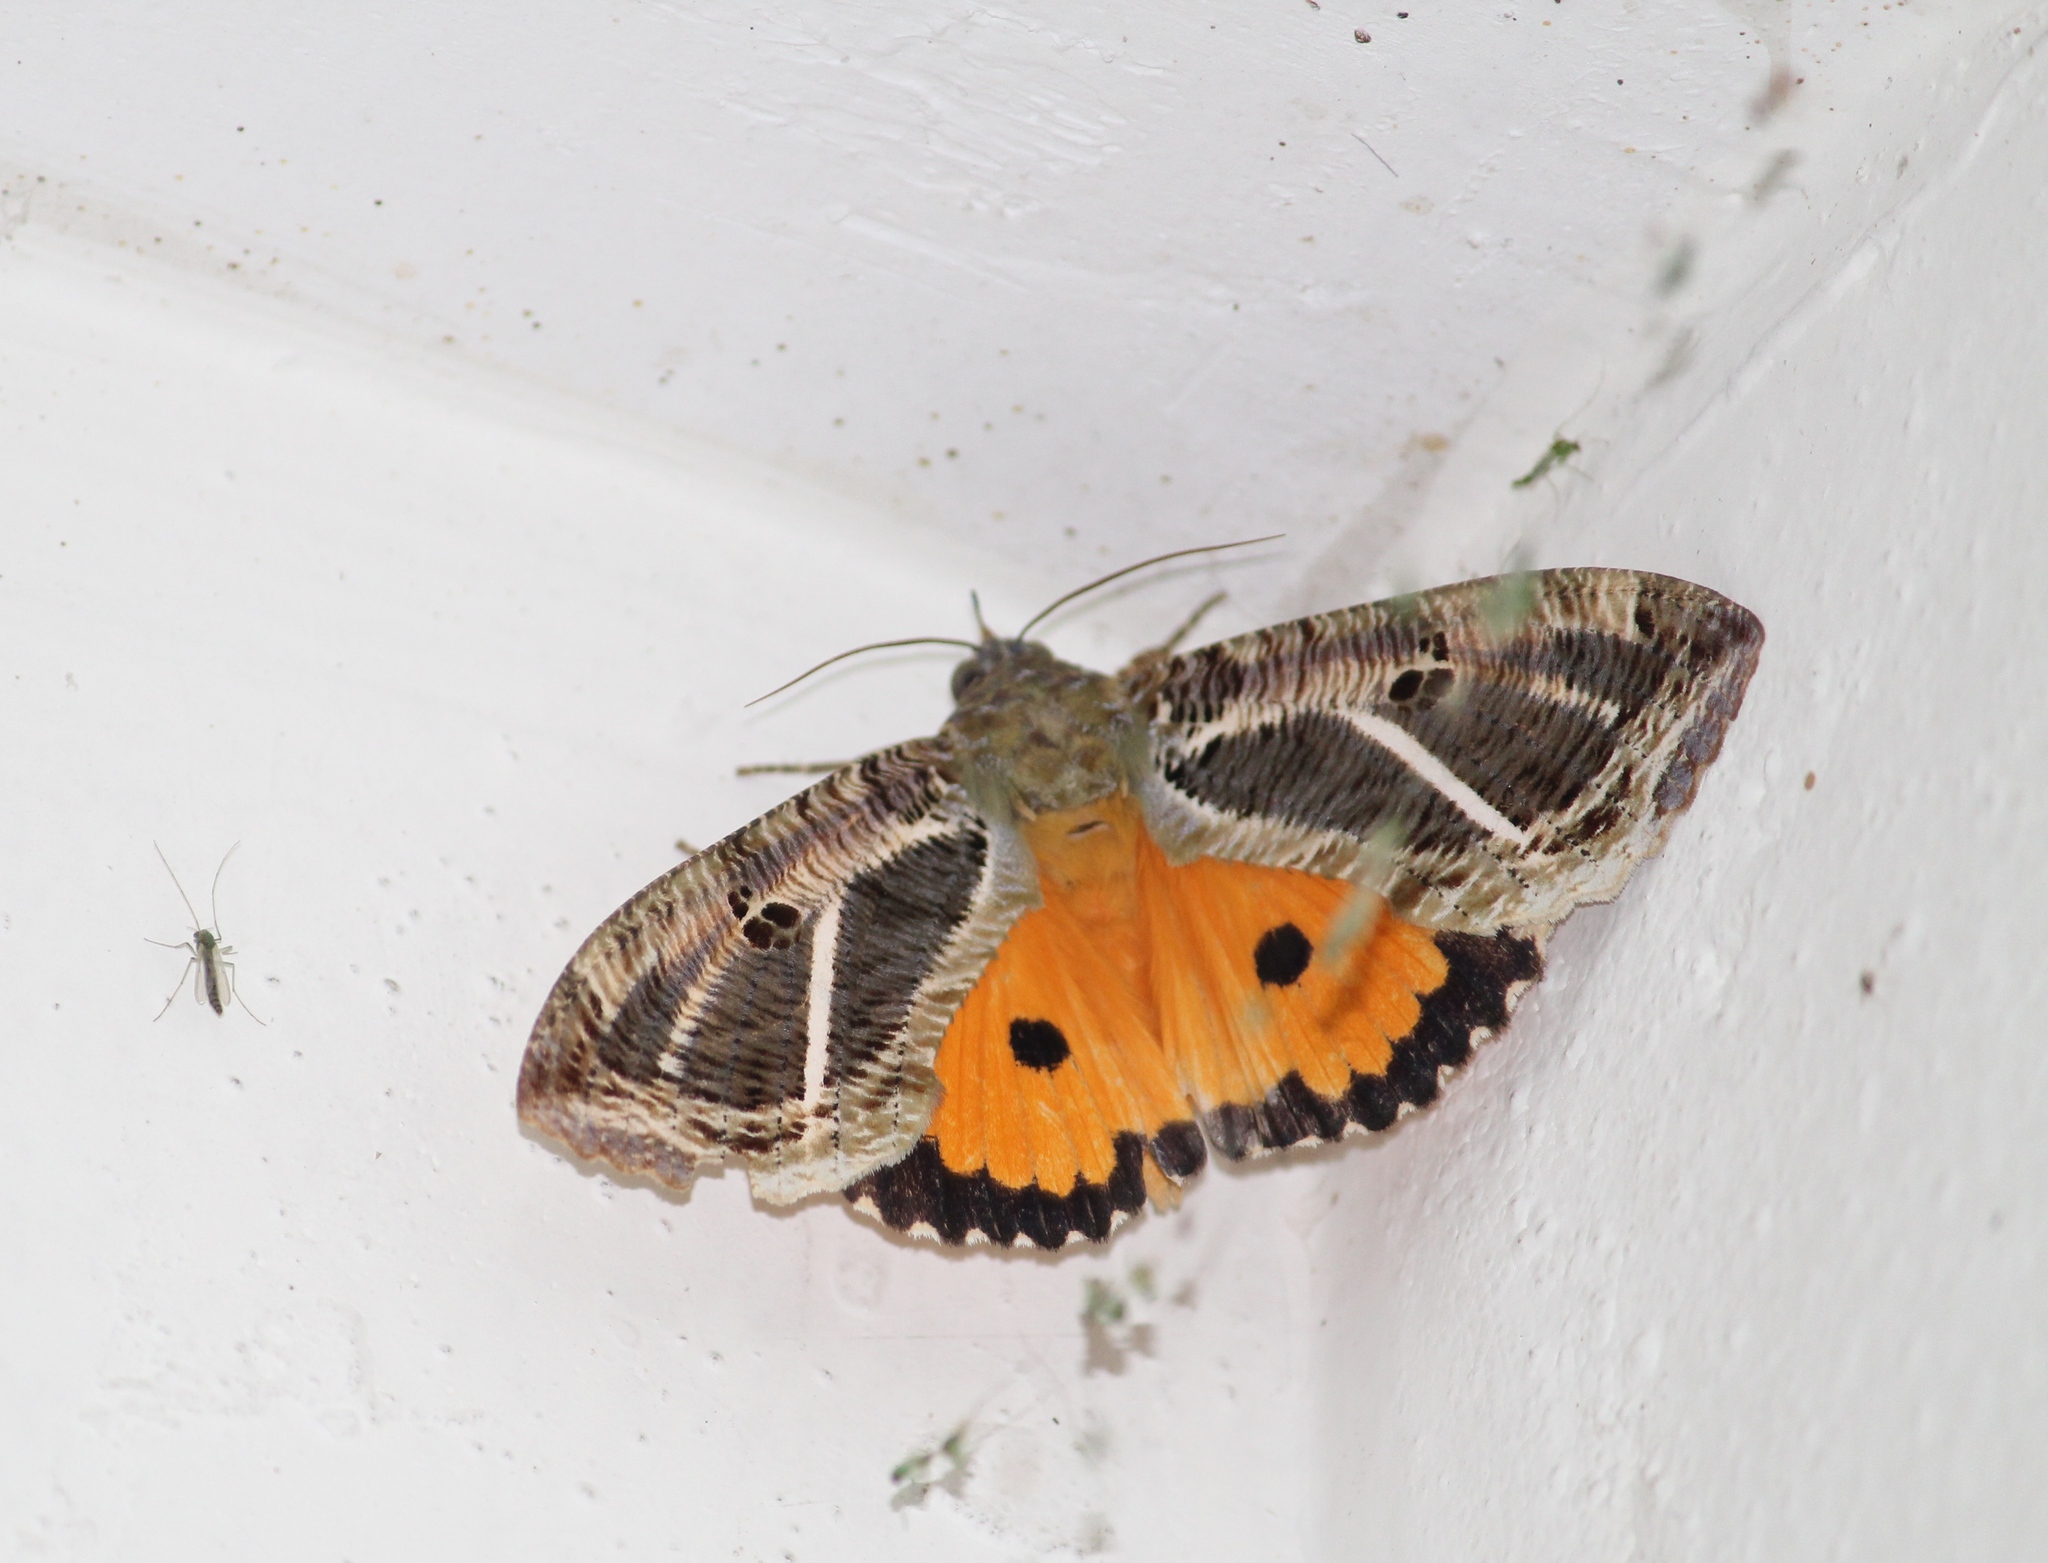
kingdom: Animalia
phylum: Arthropoda
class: Insecta
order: Lepidoptera
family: Erebidae
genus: Eudocima
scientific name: Eudocima materna
